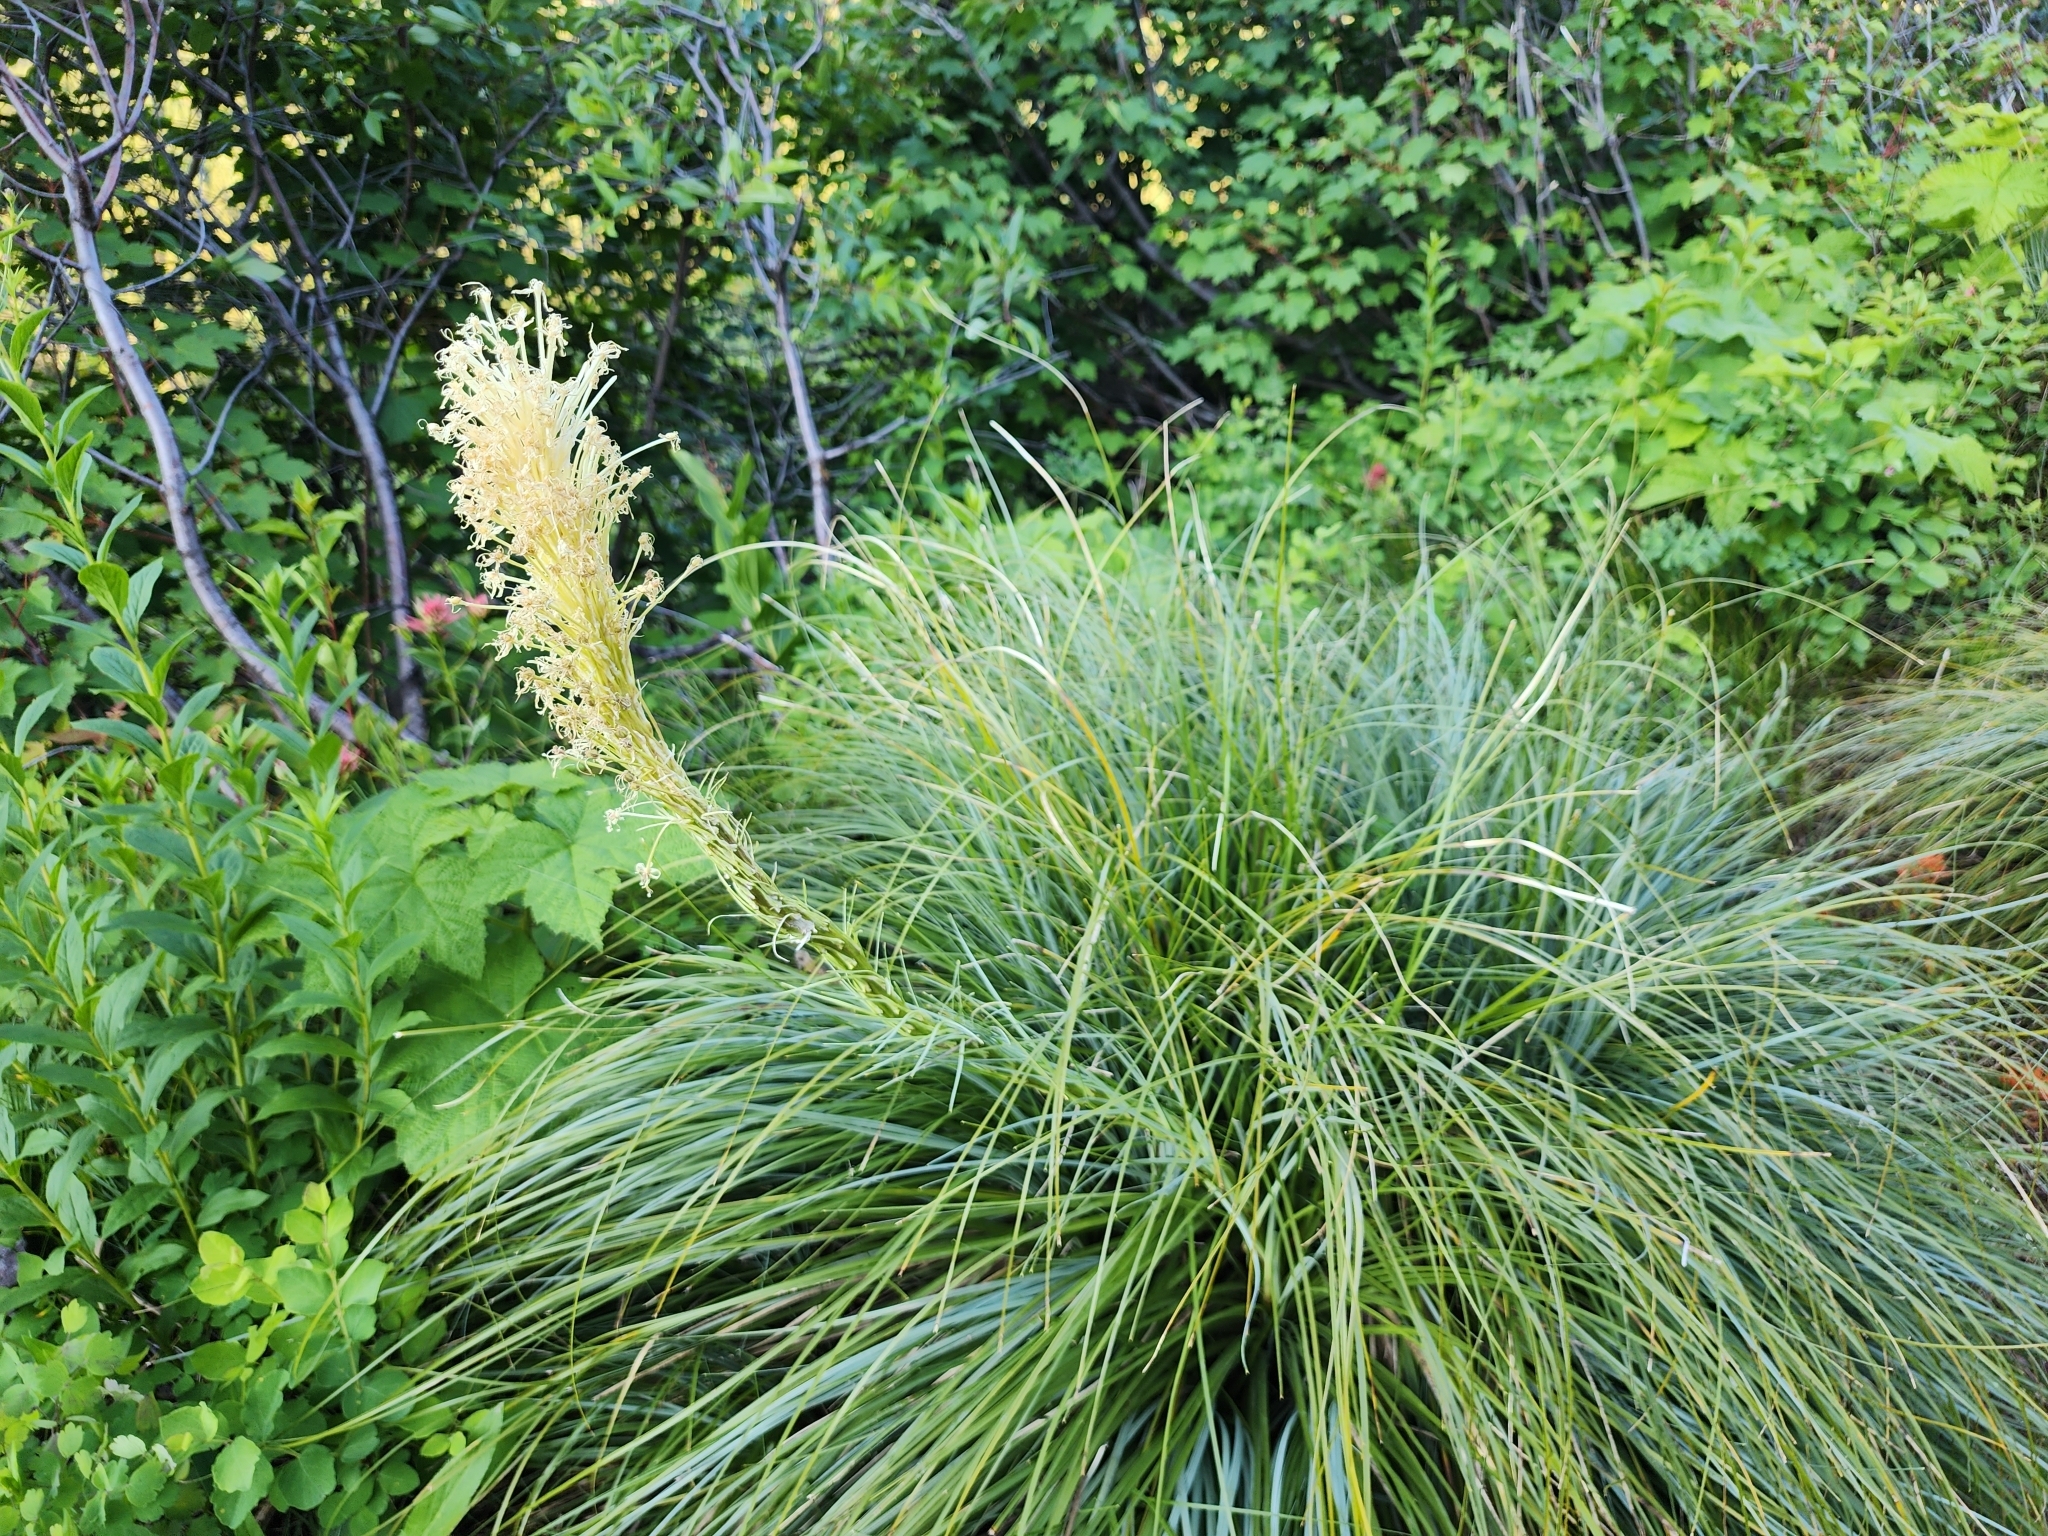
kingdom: Plantae
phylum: Tracheophyta
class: Liliopsida
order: Liliales
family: Melanthiaceae
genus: Xerophyllum
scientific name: Xerophyllum tenax
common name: Bear-grass
